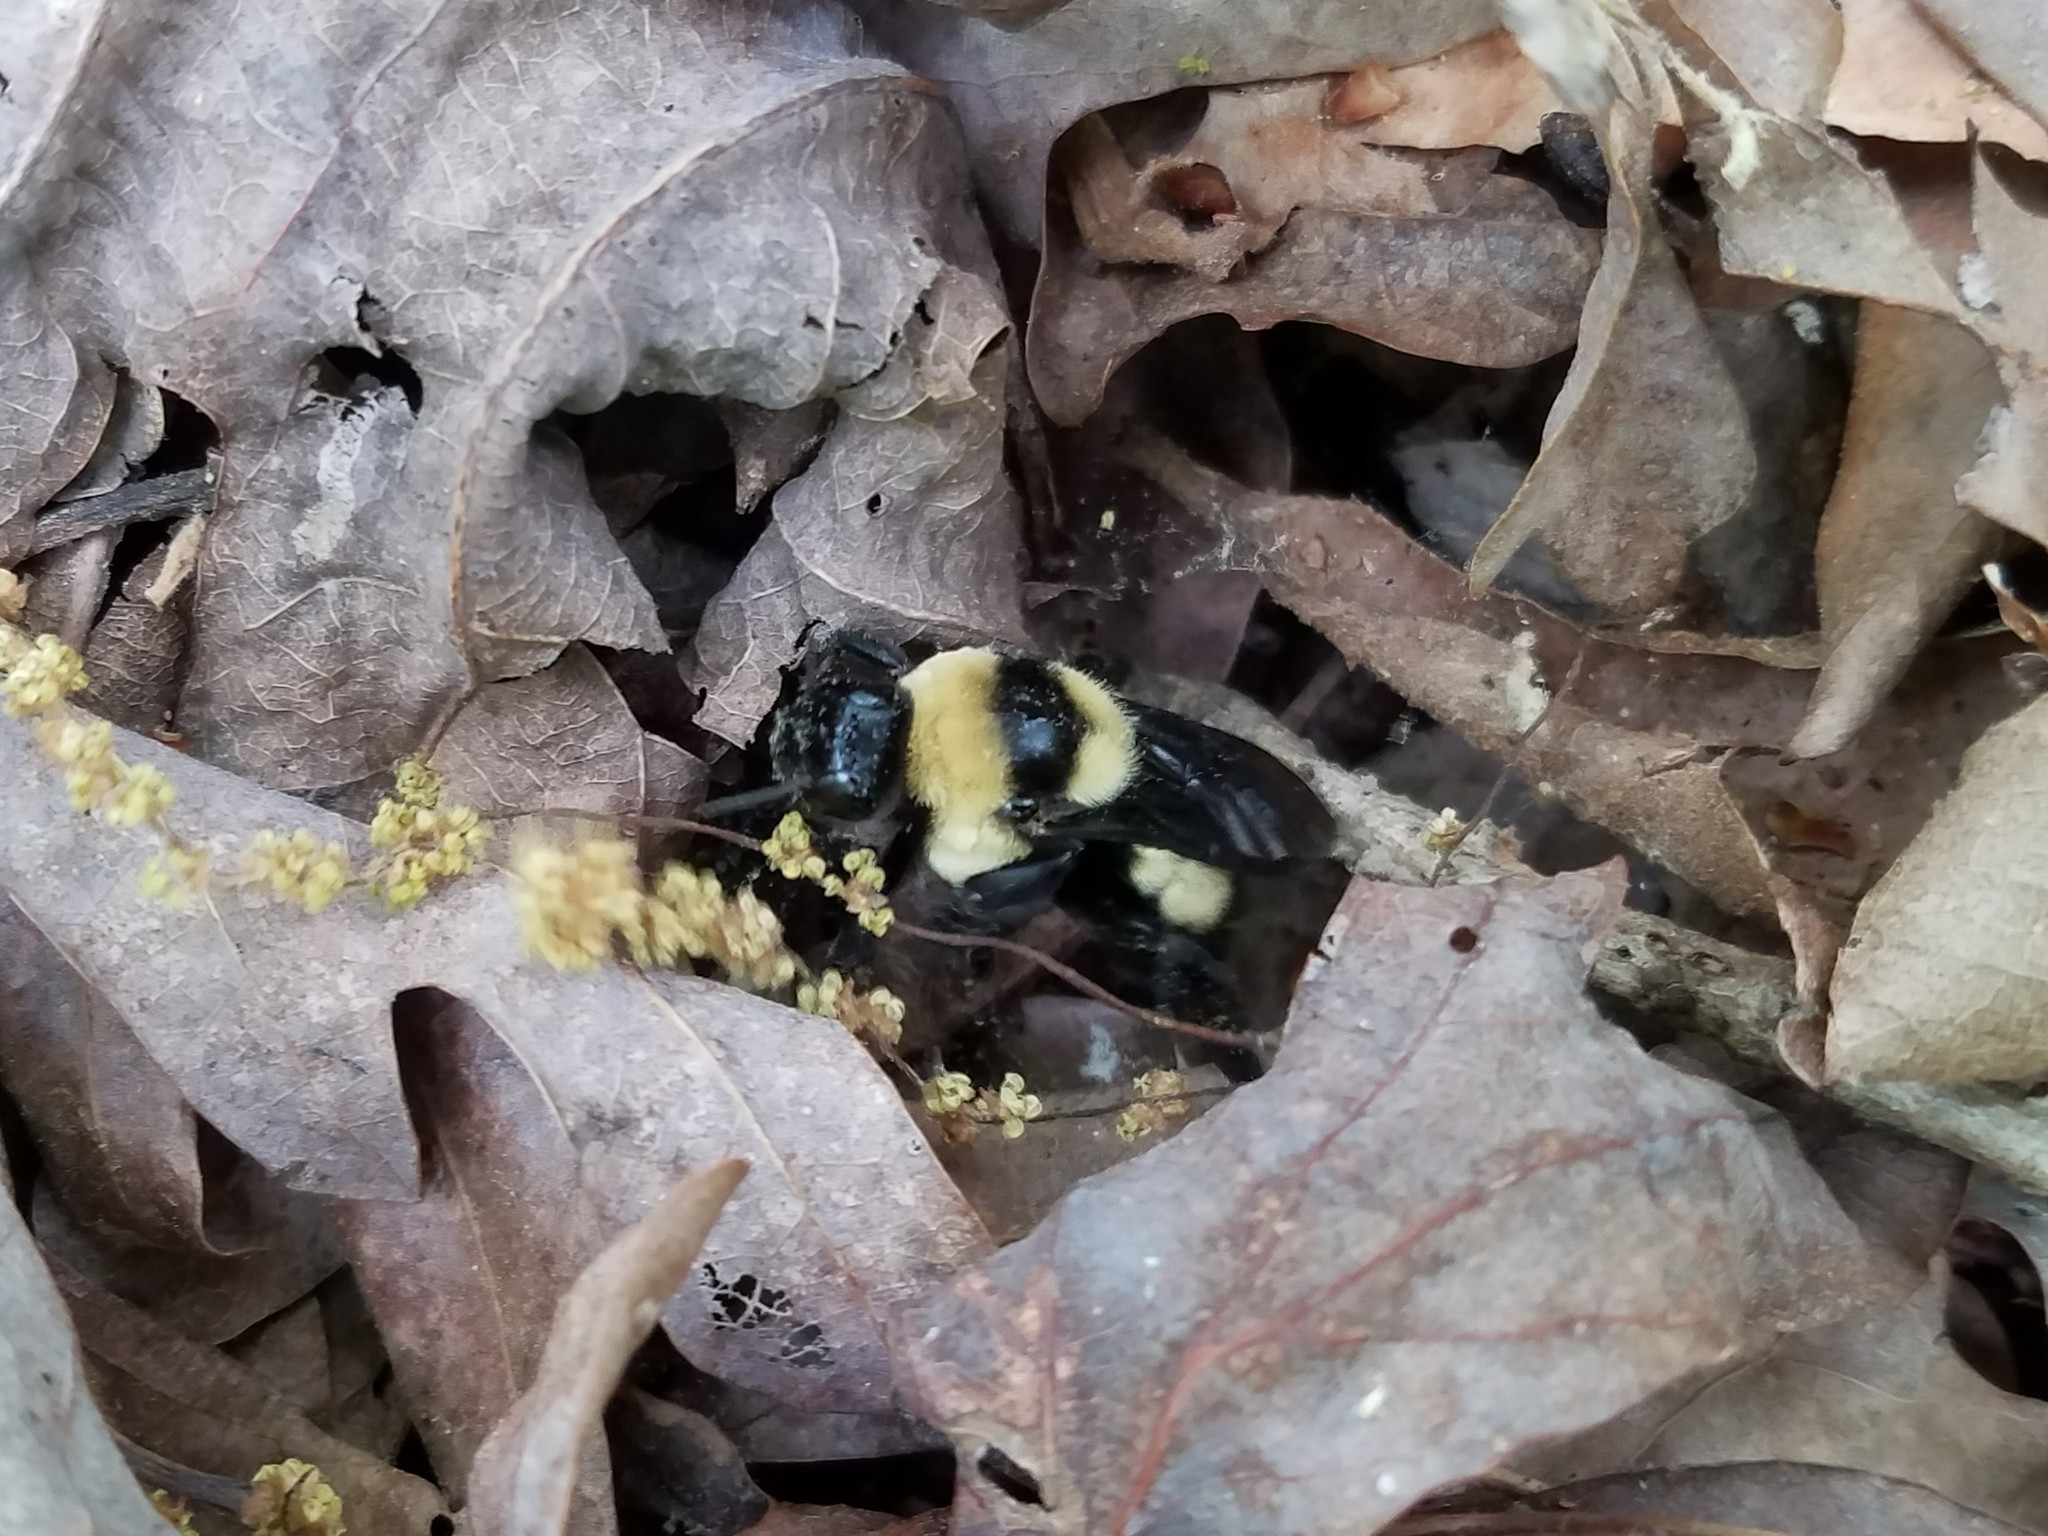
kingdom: Animalia
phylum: Arthropoda
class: Insecta
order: Hymenoptera
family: Apidae
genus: Bombus
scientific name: Bombus fraternus
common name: Southern plains bumble bee
